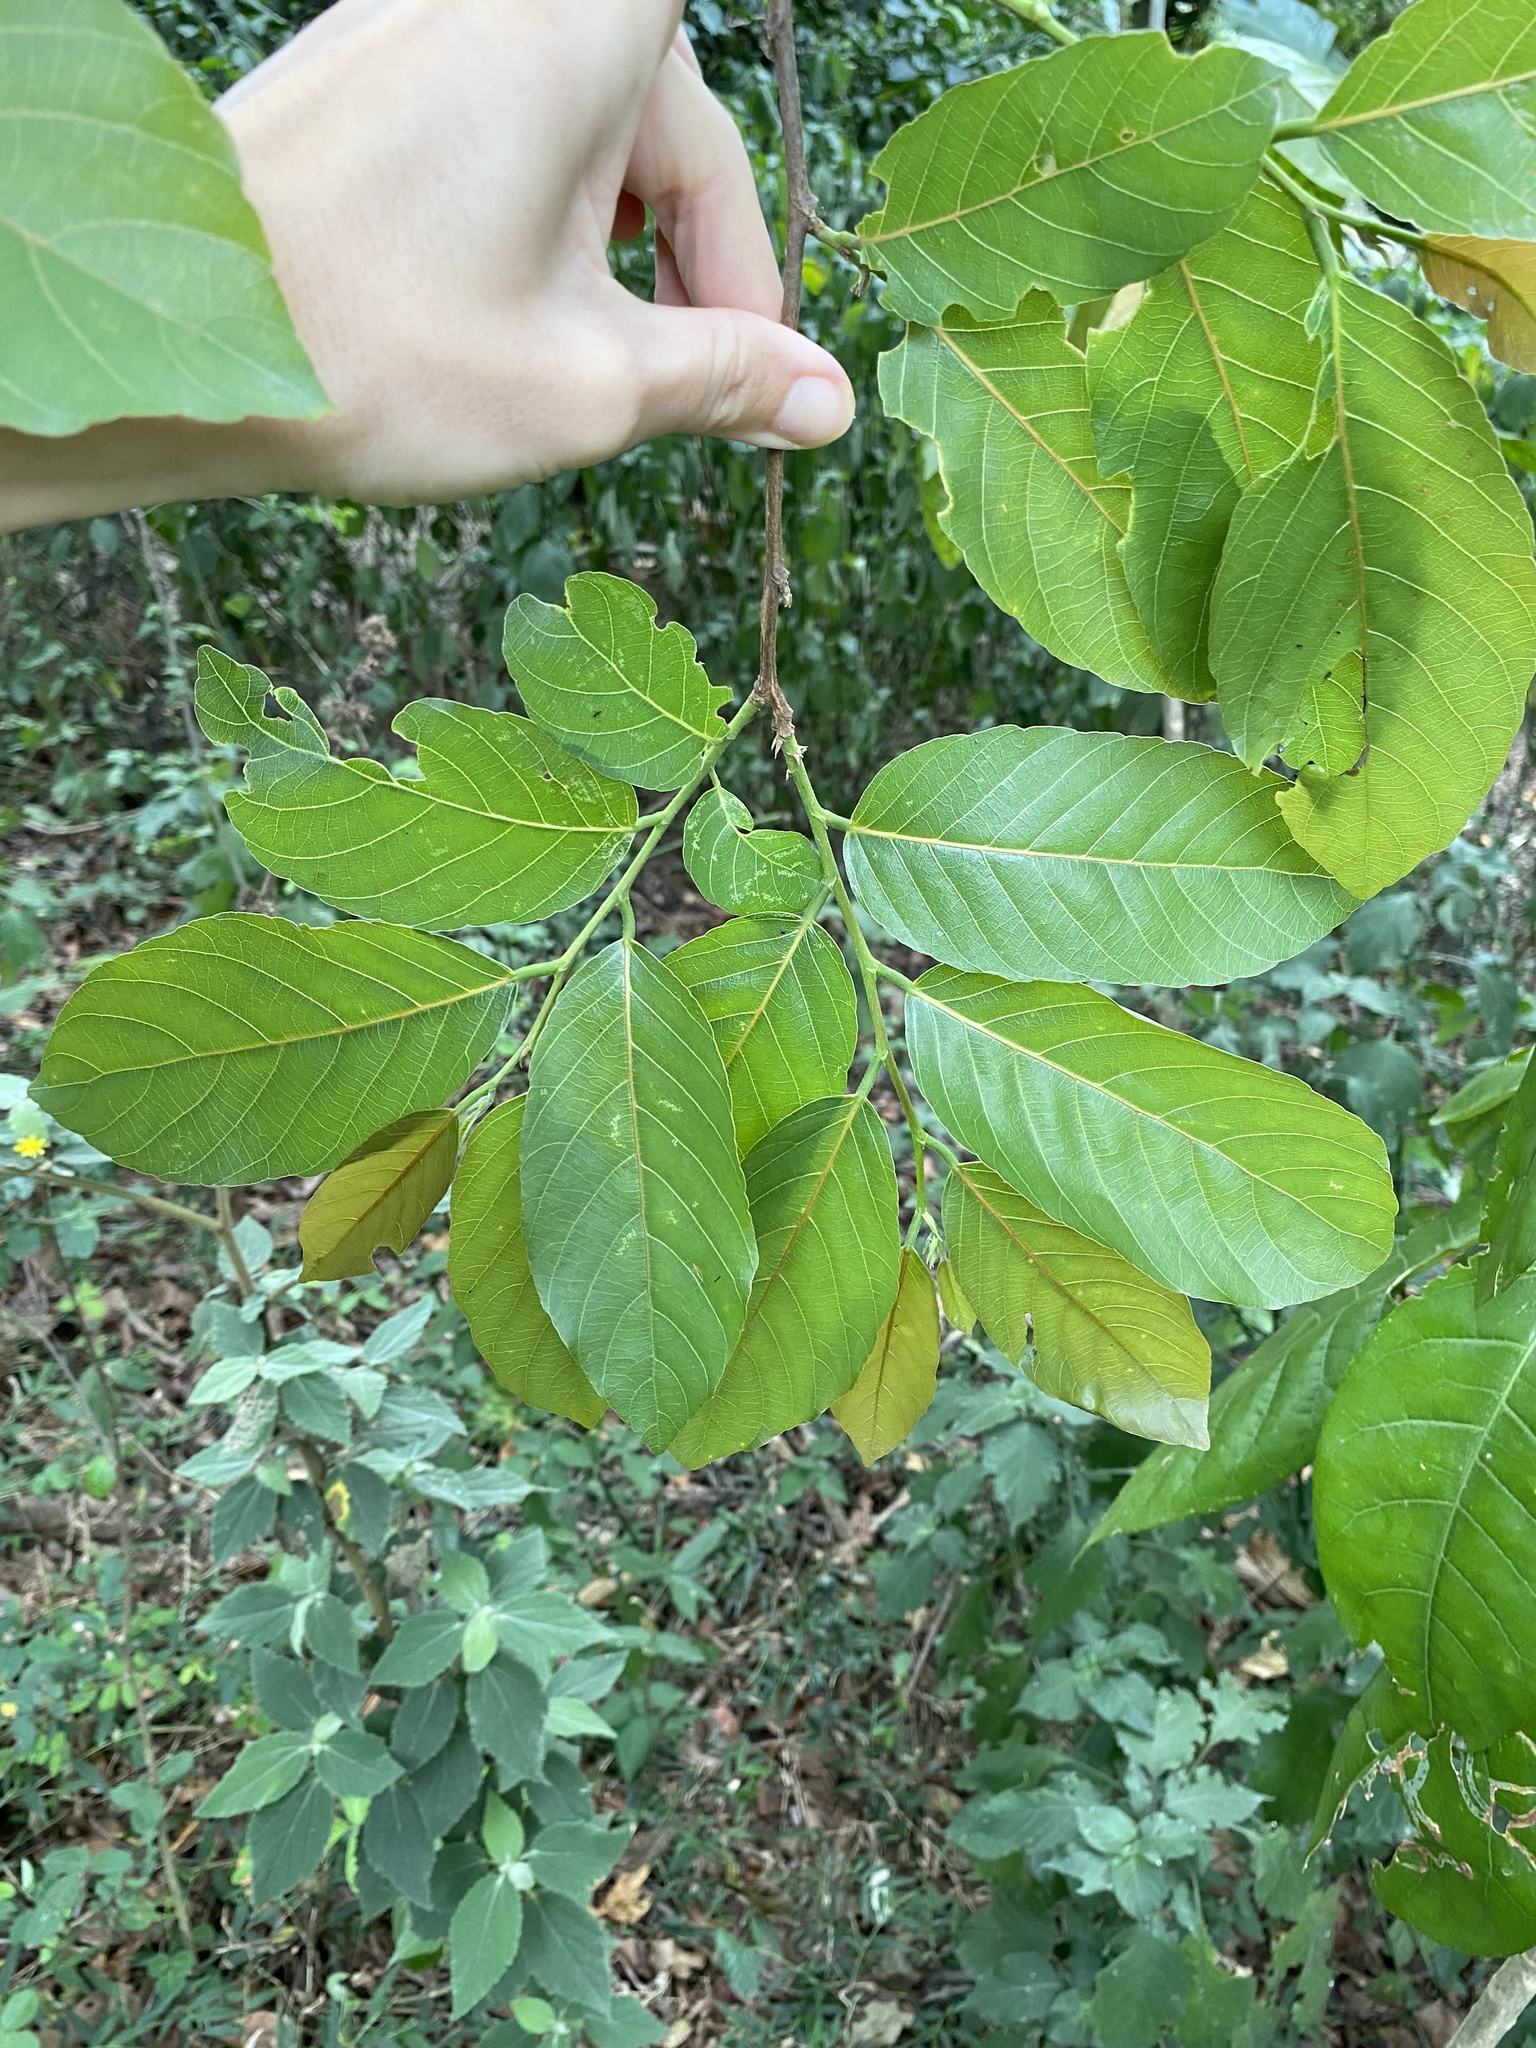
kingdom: Plantae
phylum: Tracheophyta
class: Magnoliopsida
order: Malpighiales
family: Phyllanthaceae
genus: Bridelia
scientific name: Bridelia micrantha
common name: Bridelia
